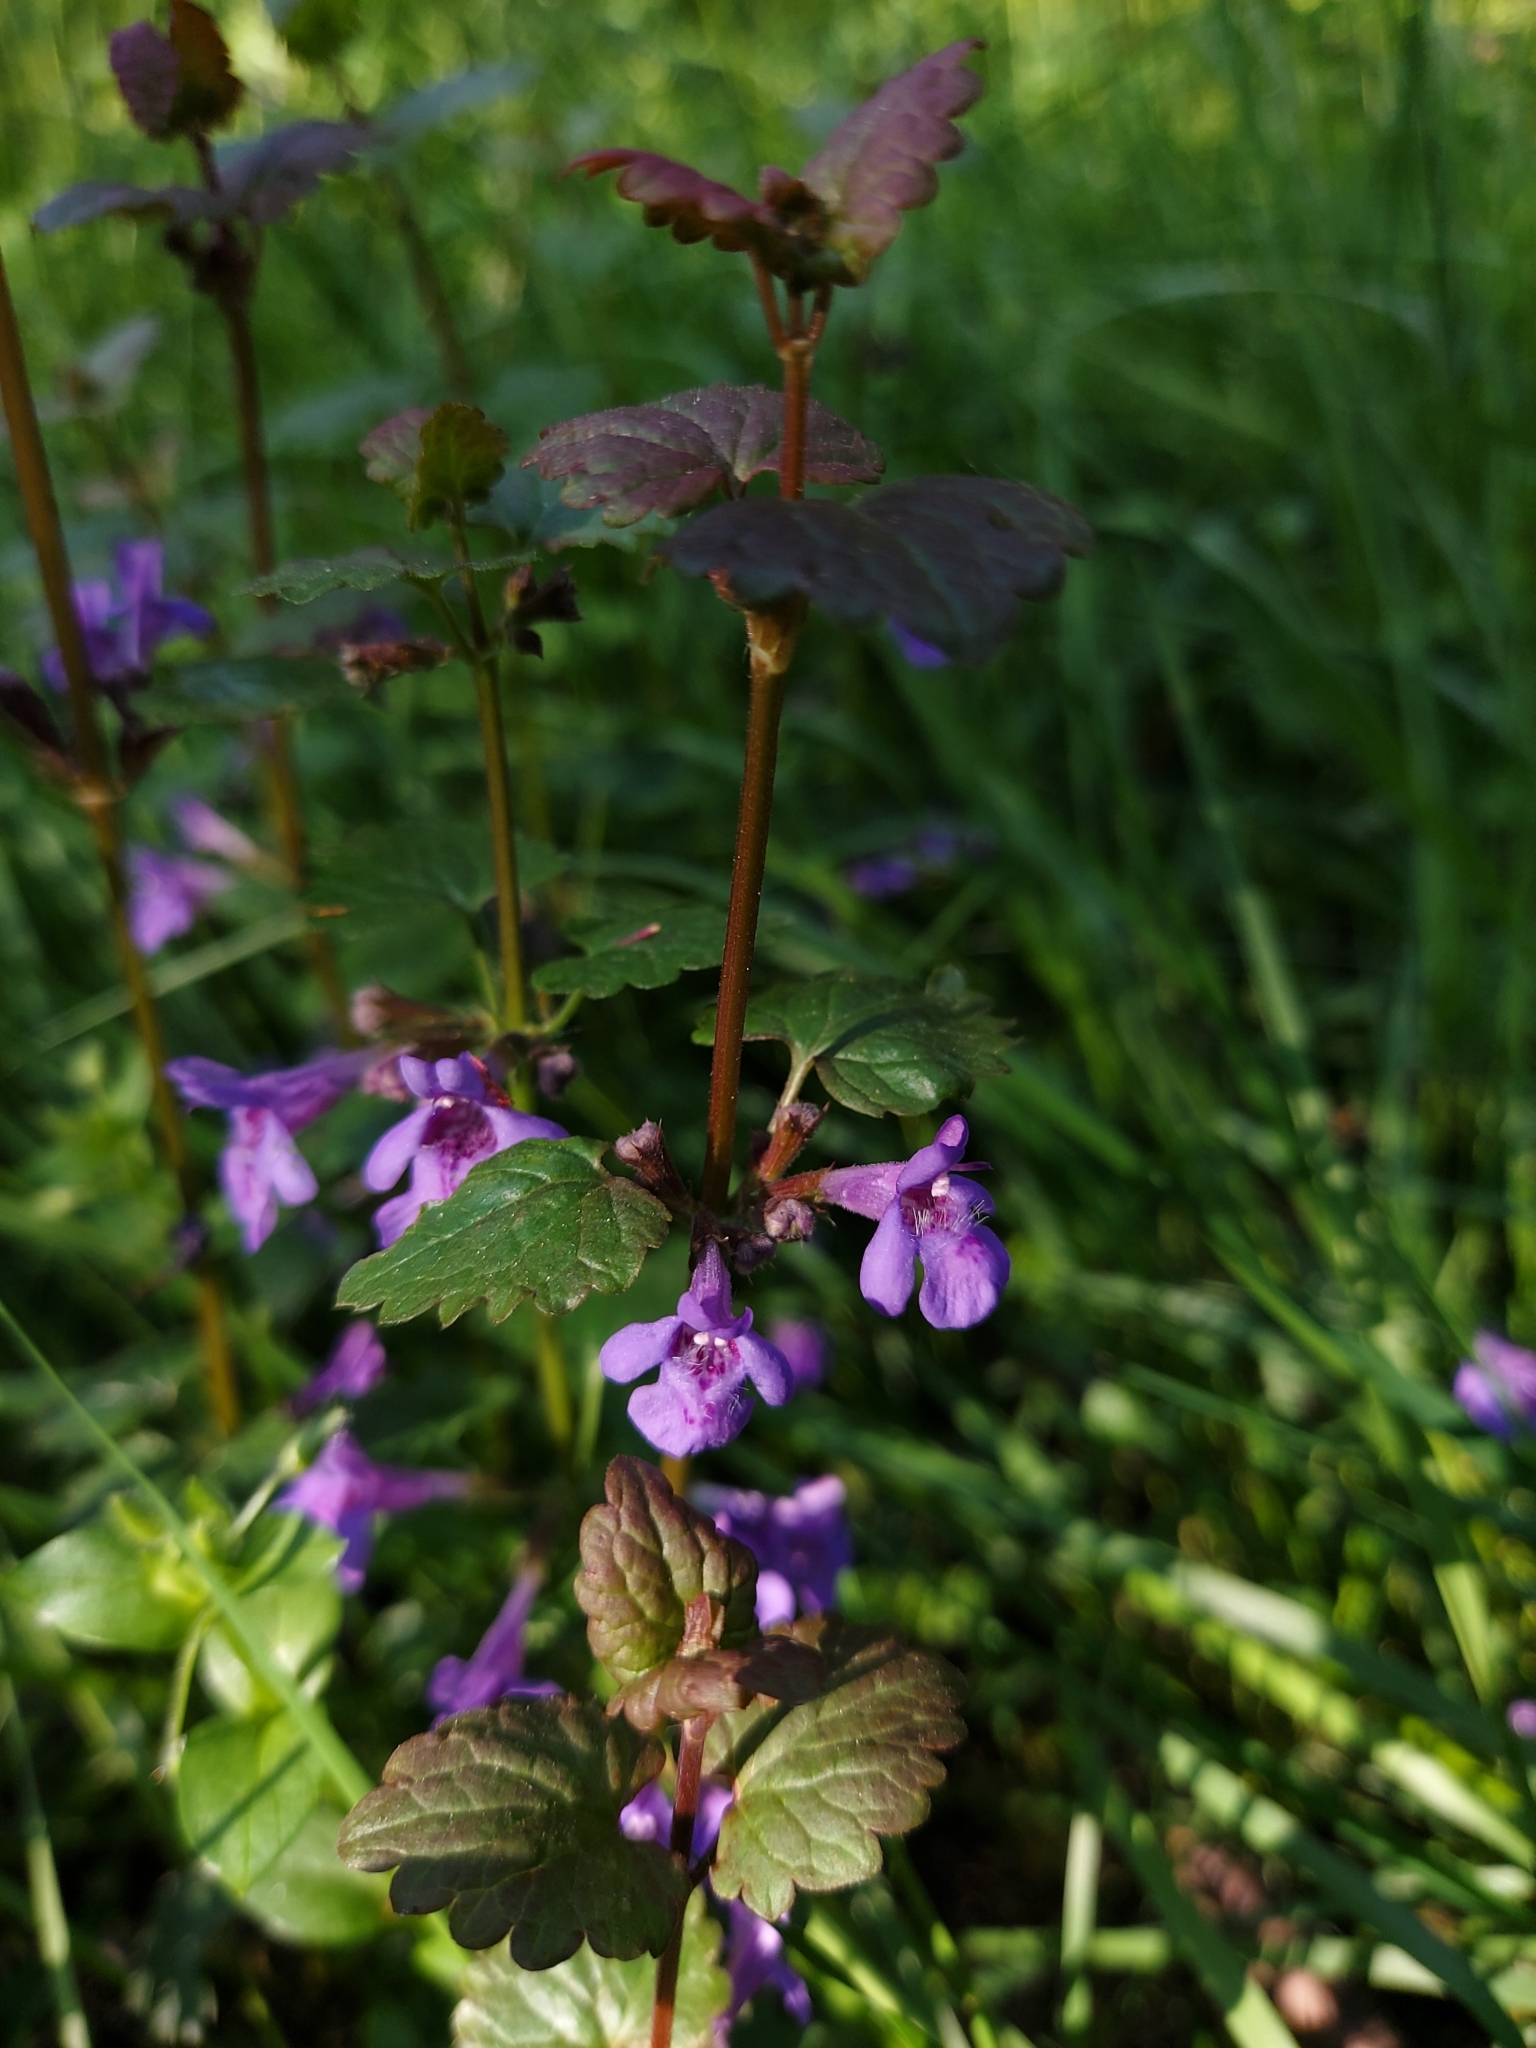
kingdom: Plantae
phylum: Tracheophyta
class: Magnoliopsida
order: Lamiales
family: Lamiaceae
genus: Glechoma
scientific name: Glechoma hederacea
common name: Ground ivy
